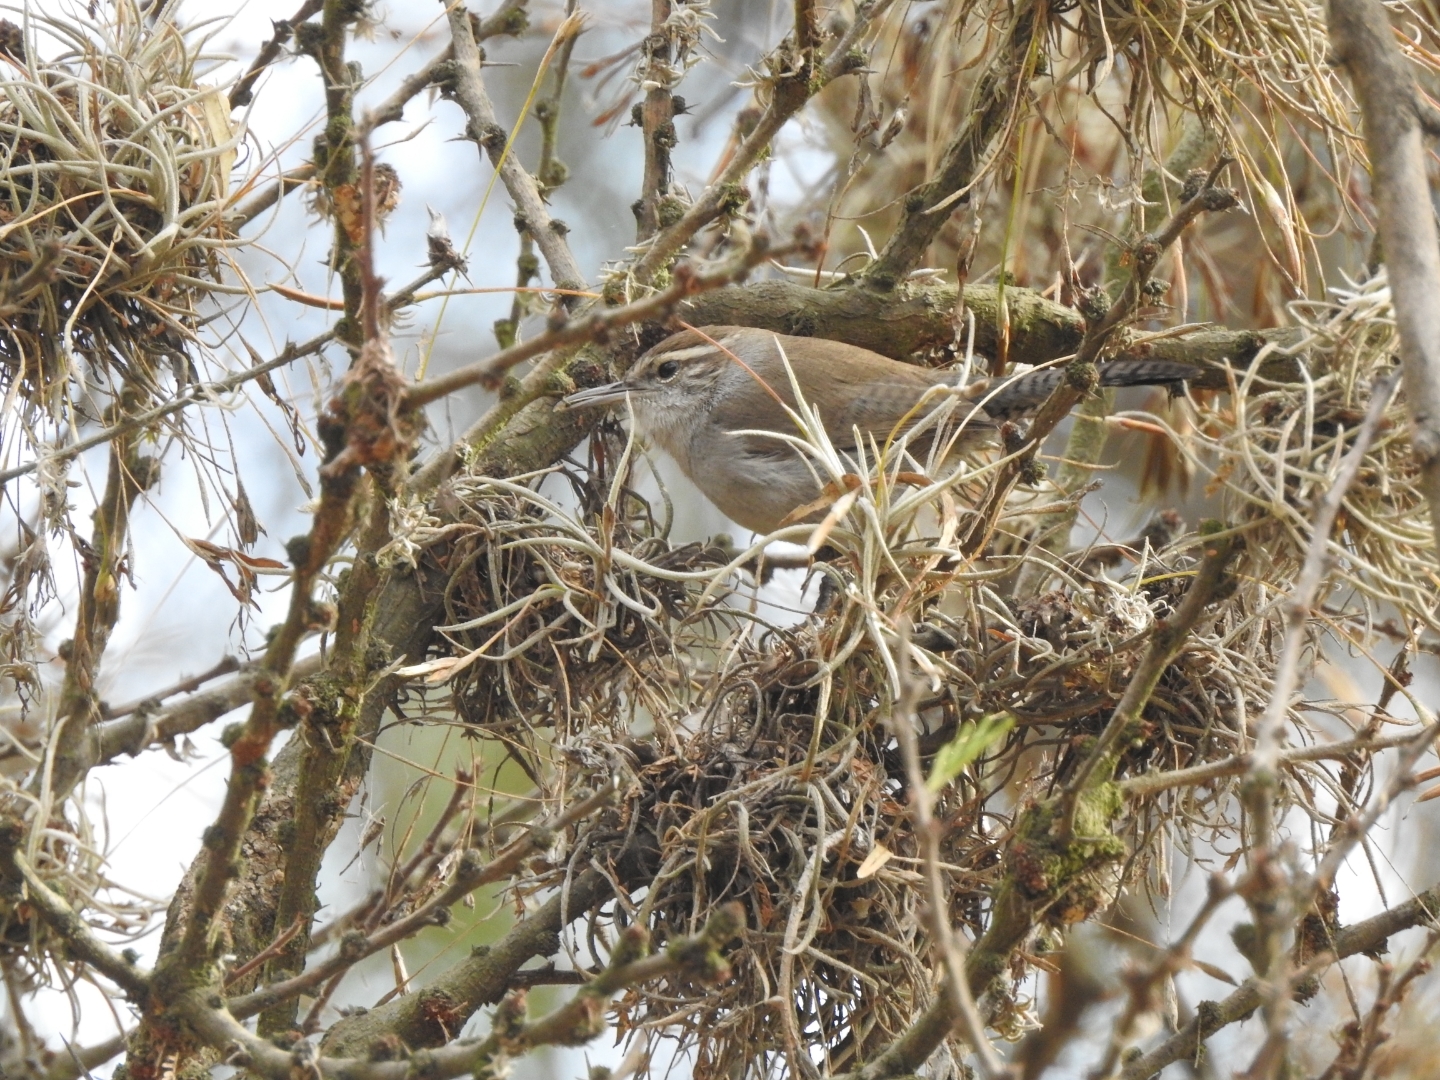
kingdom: Animalia
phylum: Chordata
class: Aves
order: Passeriformes
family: Troglodytidae
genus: Thryomanes
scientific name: Thryomanes bewickii
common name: Bewick's wren
